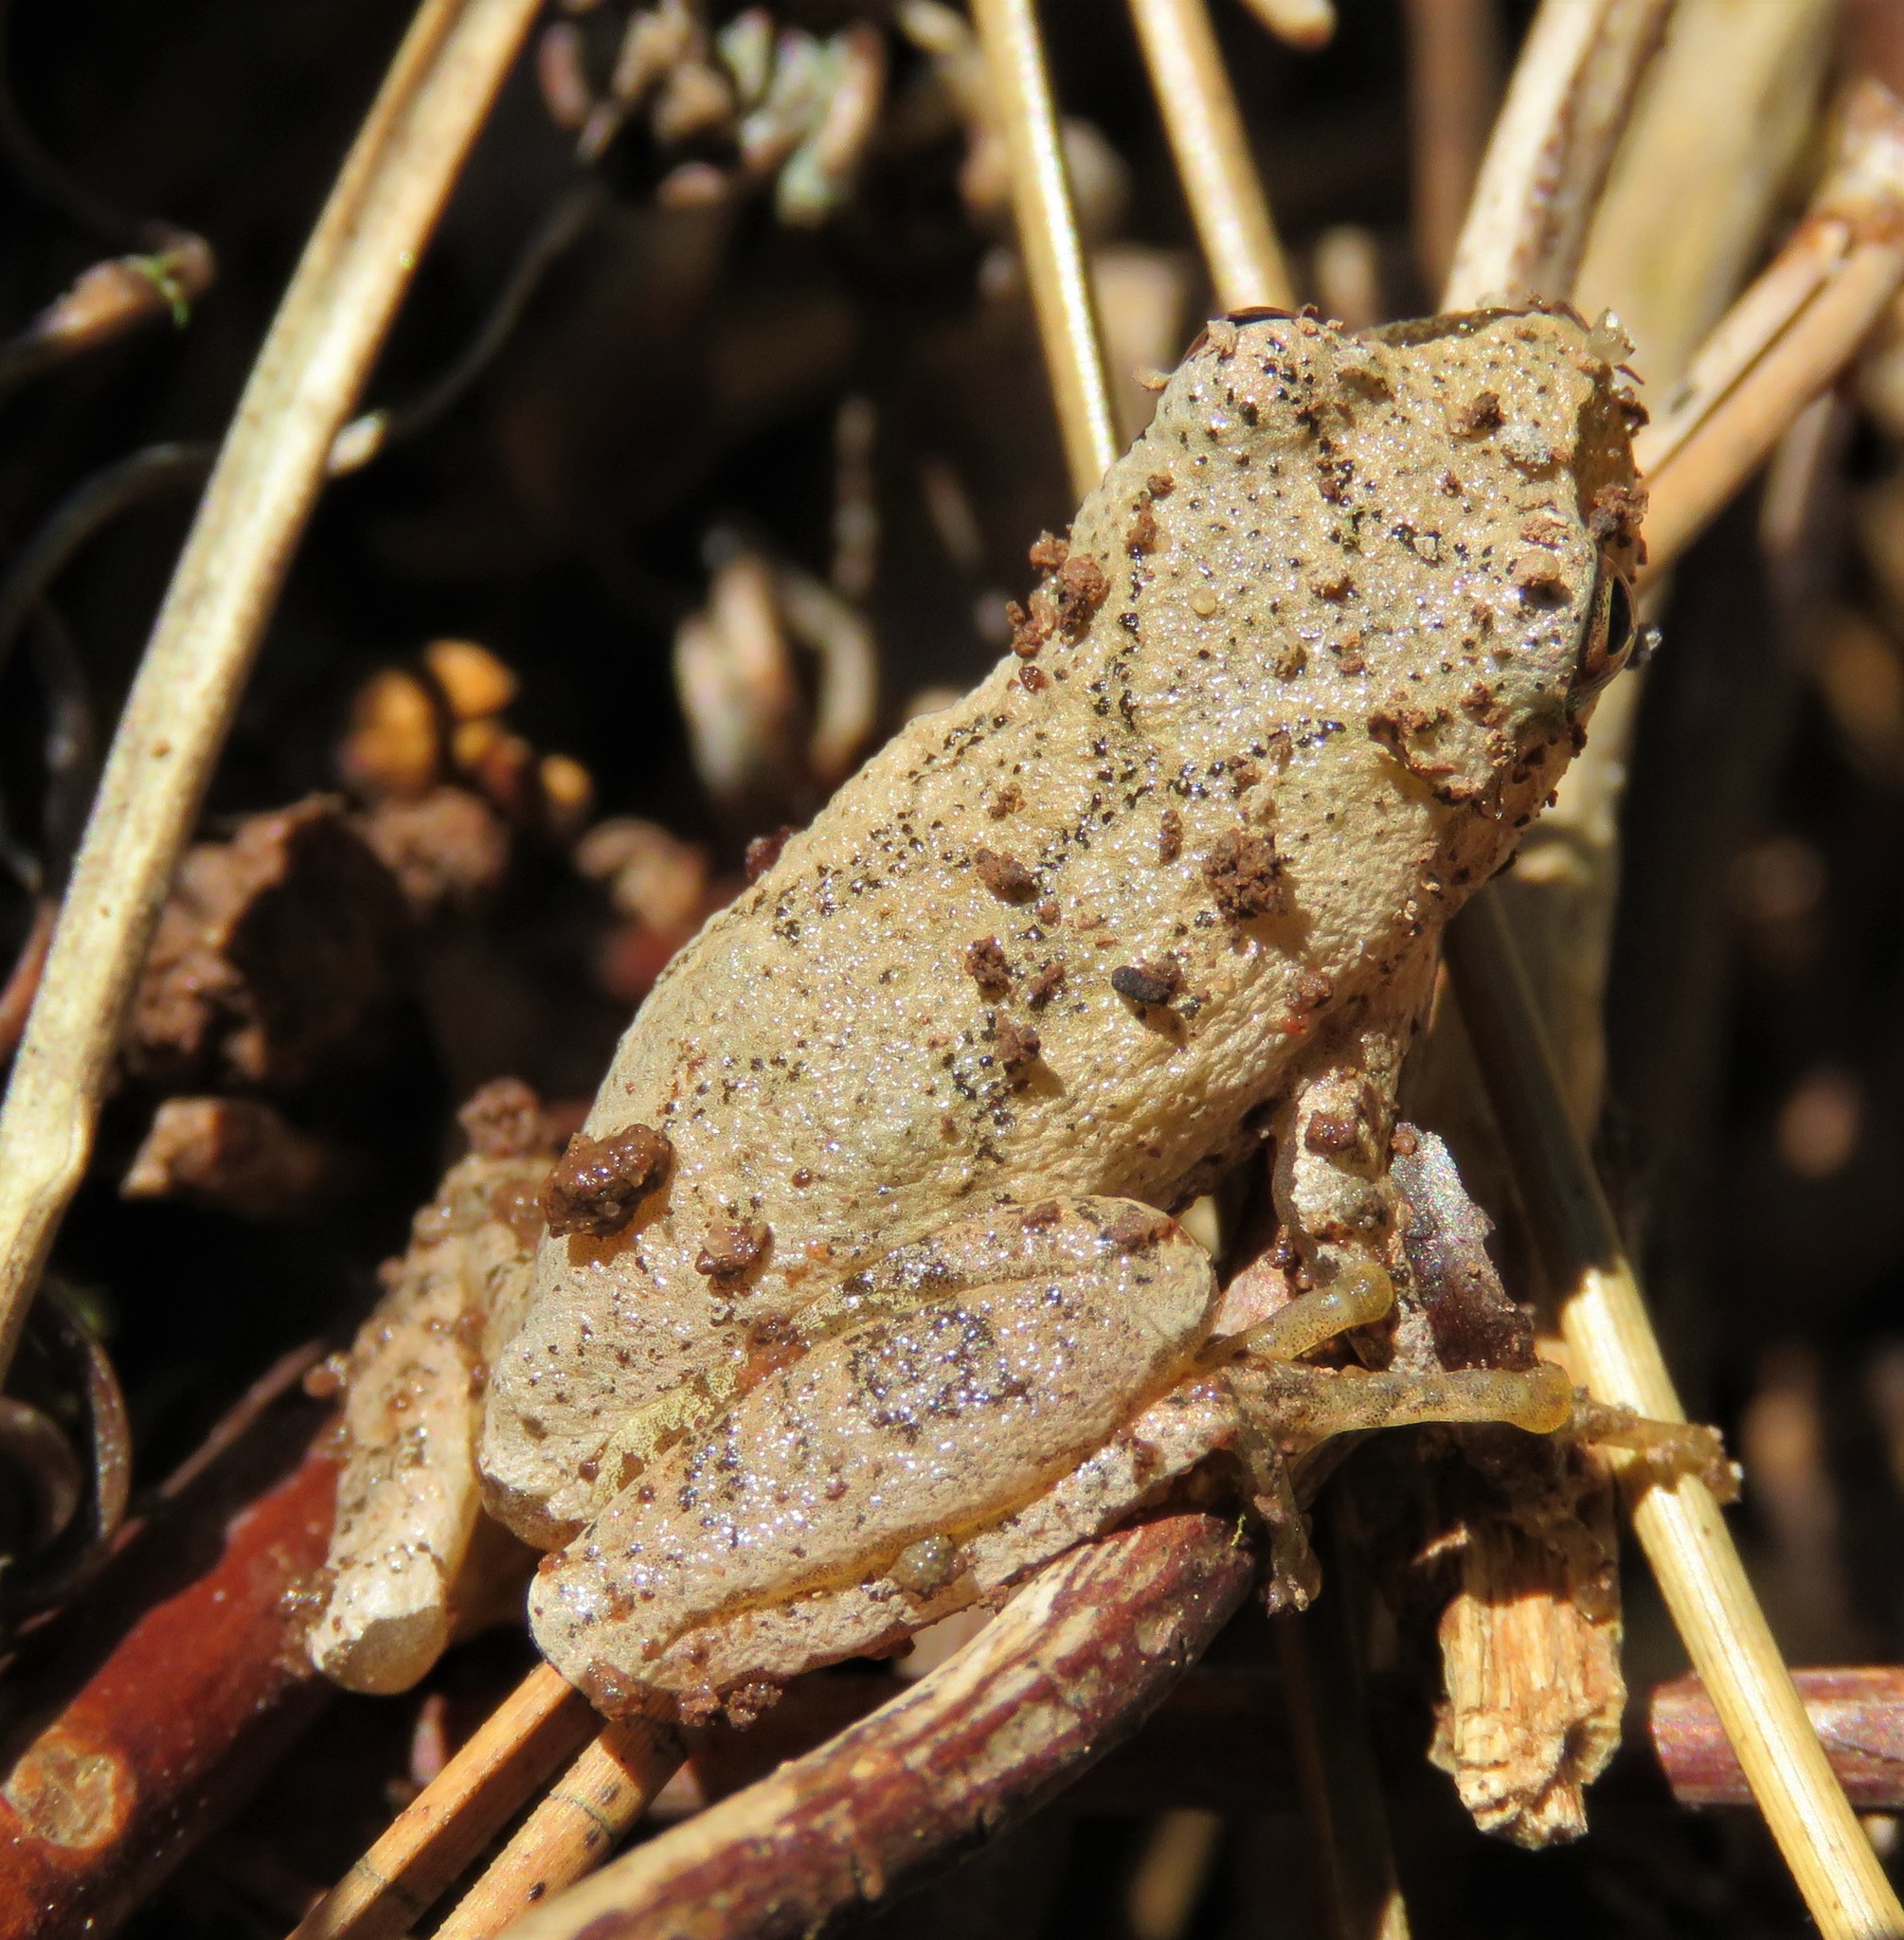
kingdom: Animalia
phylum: Chordata
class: Amphibia
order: Anura
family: Hylidae
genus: Pseudacris
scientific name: Pseudacris crucifer
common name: Spring peeper
